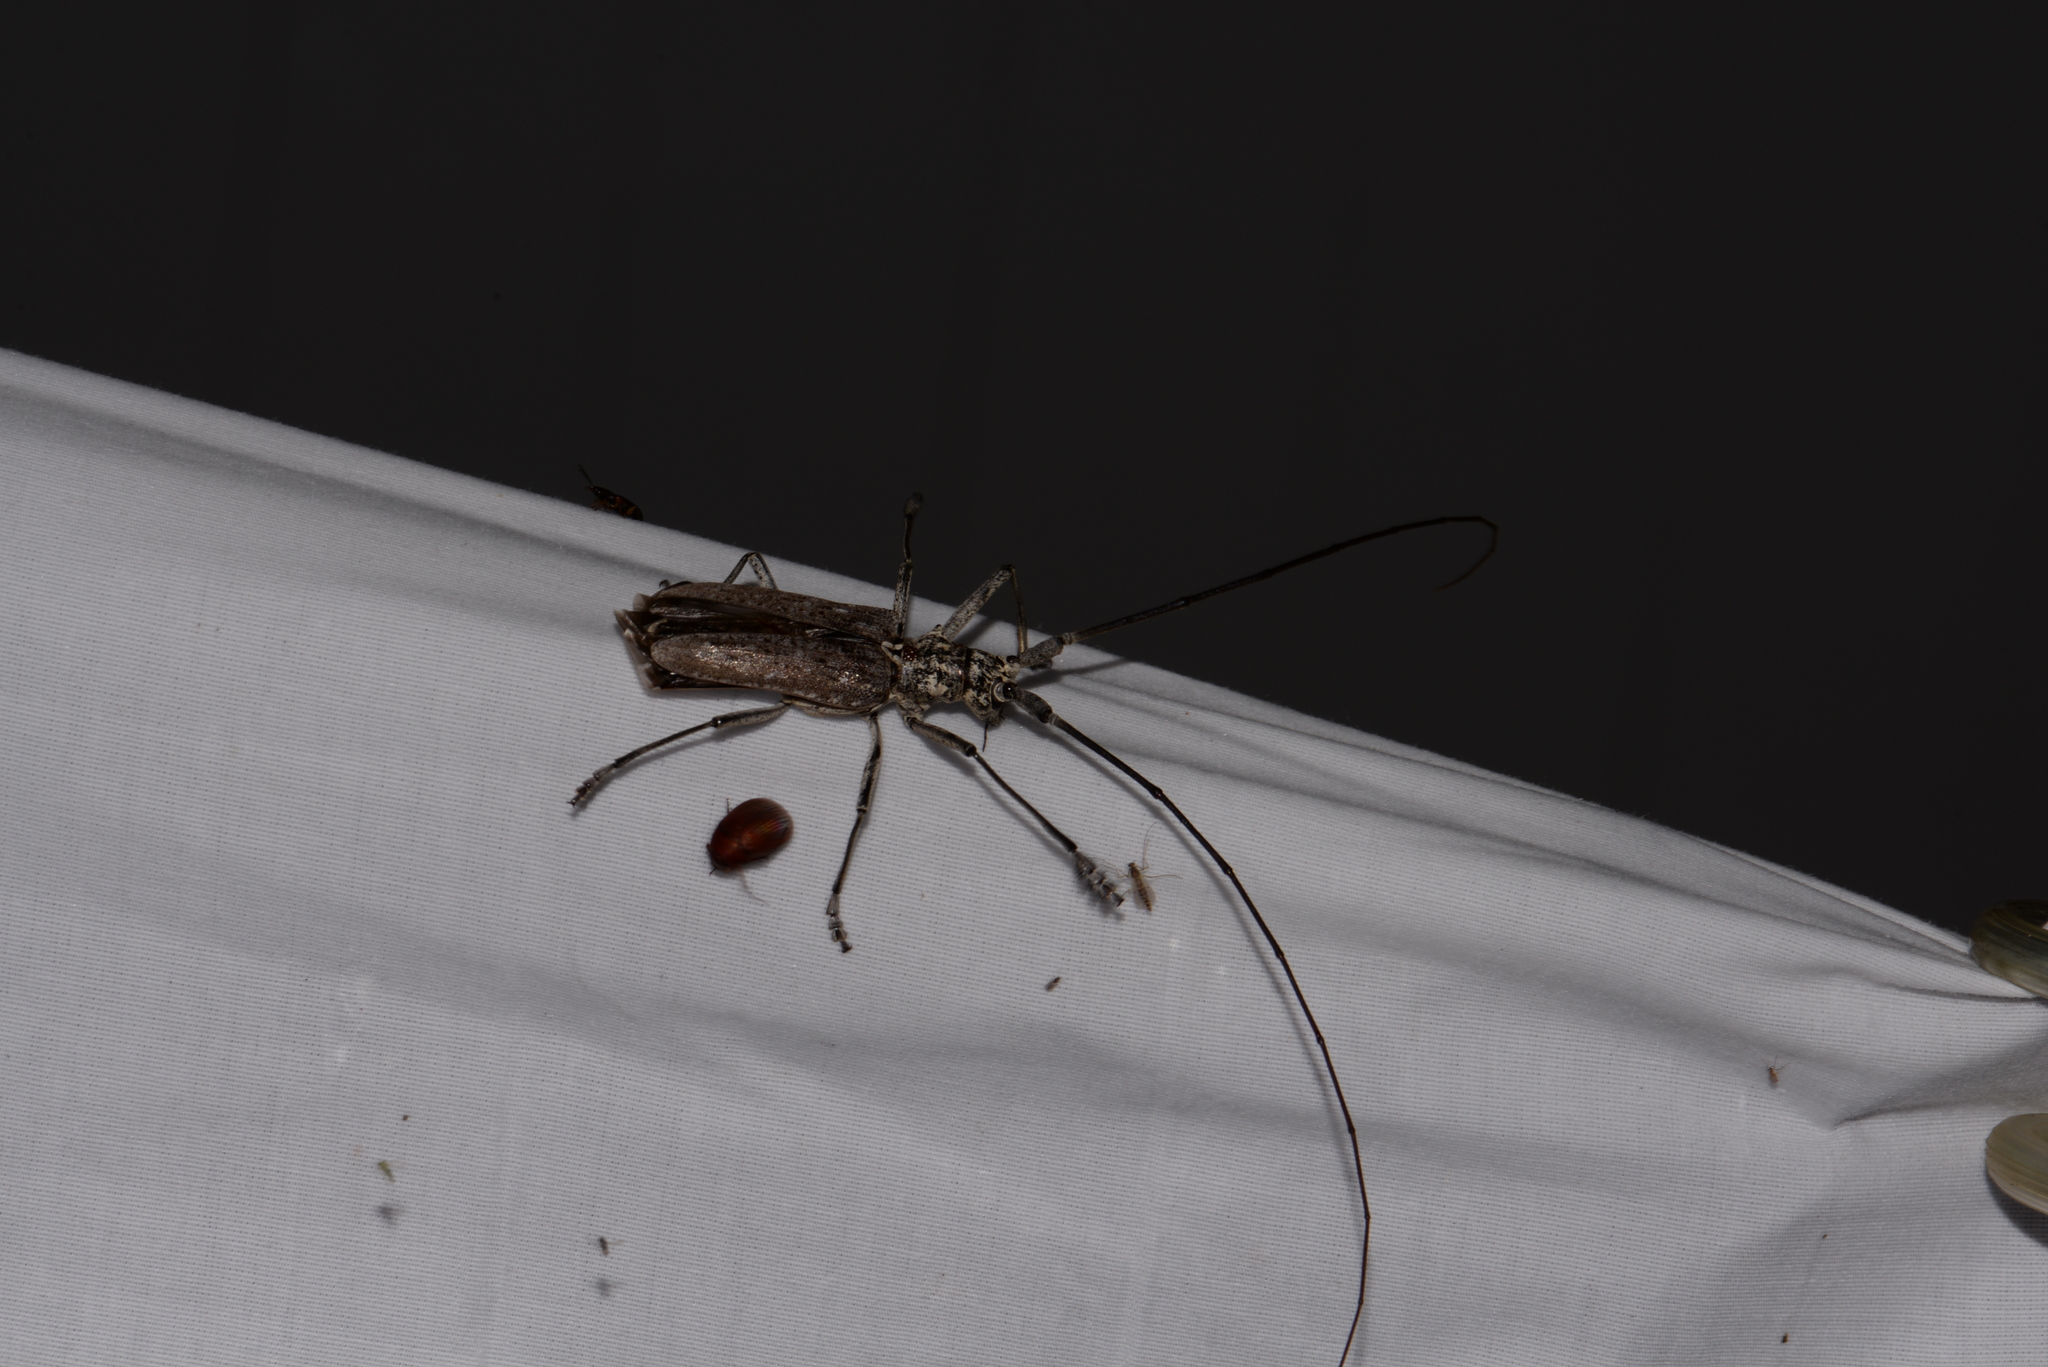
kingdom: Animalia
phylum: Arthropoda
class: Insecta
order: Coleoptera
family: Cerambycidae
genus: Monochamus
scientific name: Monochamus notatus
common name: Northeastern pine sawyer beetle
